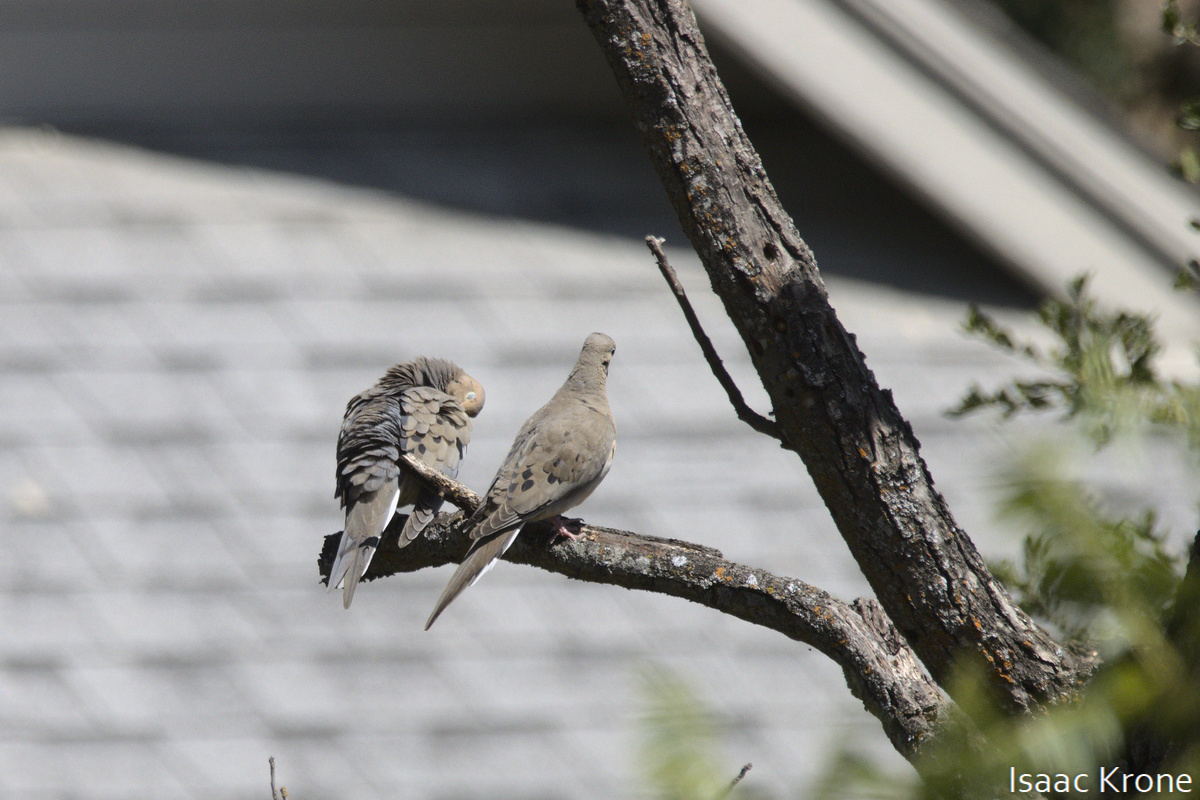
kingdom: Animalia
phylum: Chordata
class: Aves
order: Columbiformes
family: Columbidae
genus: Zenaida
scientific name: Zenaida macroura
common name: Mourning dove
